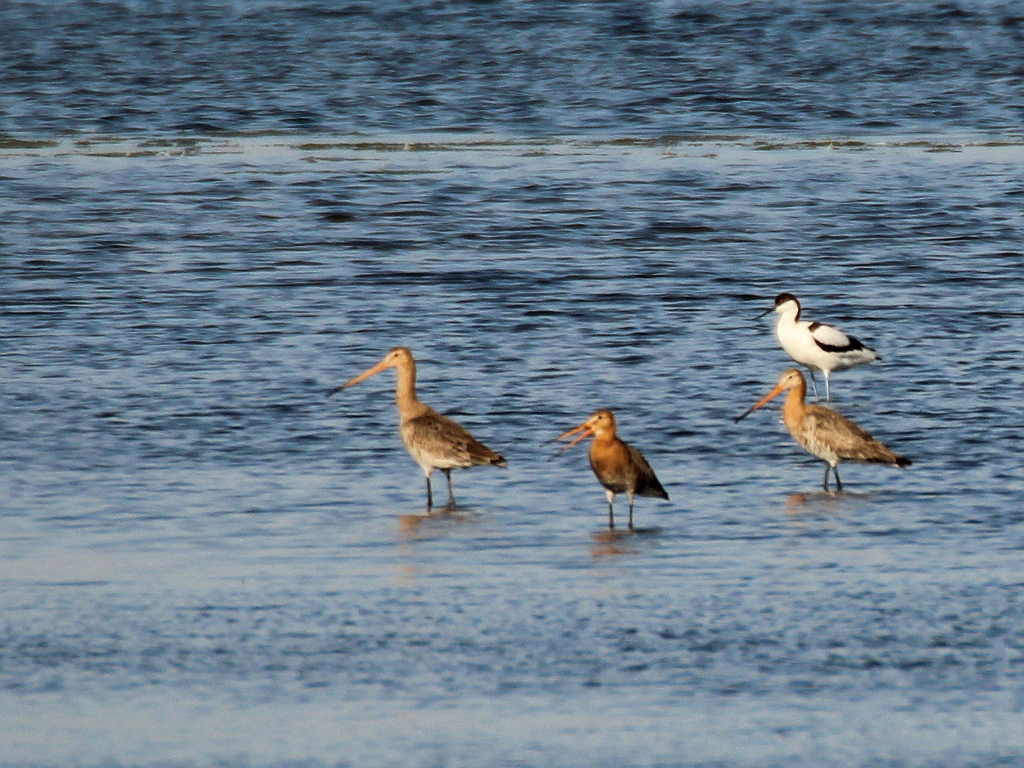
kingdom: Animalia
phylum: Chordata
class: Aves
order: Charadriiformes
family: Scolopacidae
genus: Limosa
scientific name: Limosa limosa
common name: Black-tailed godwit
